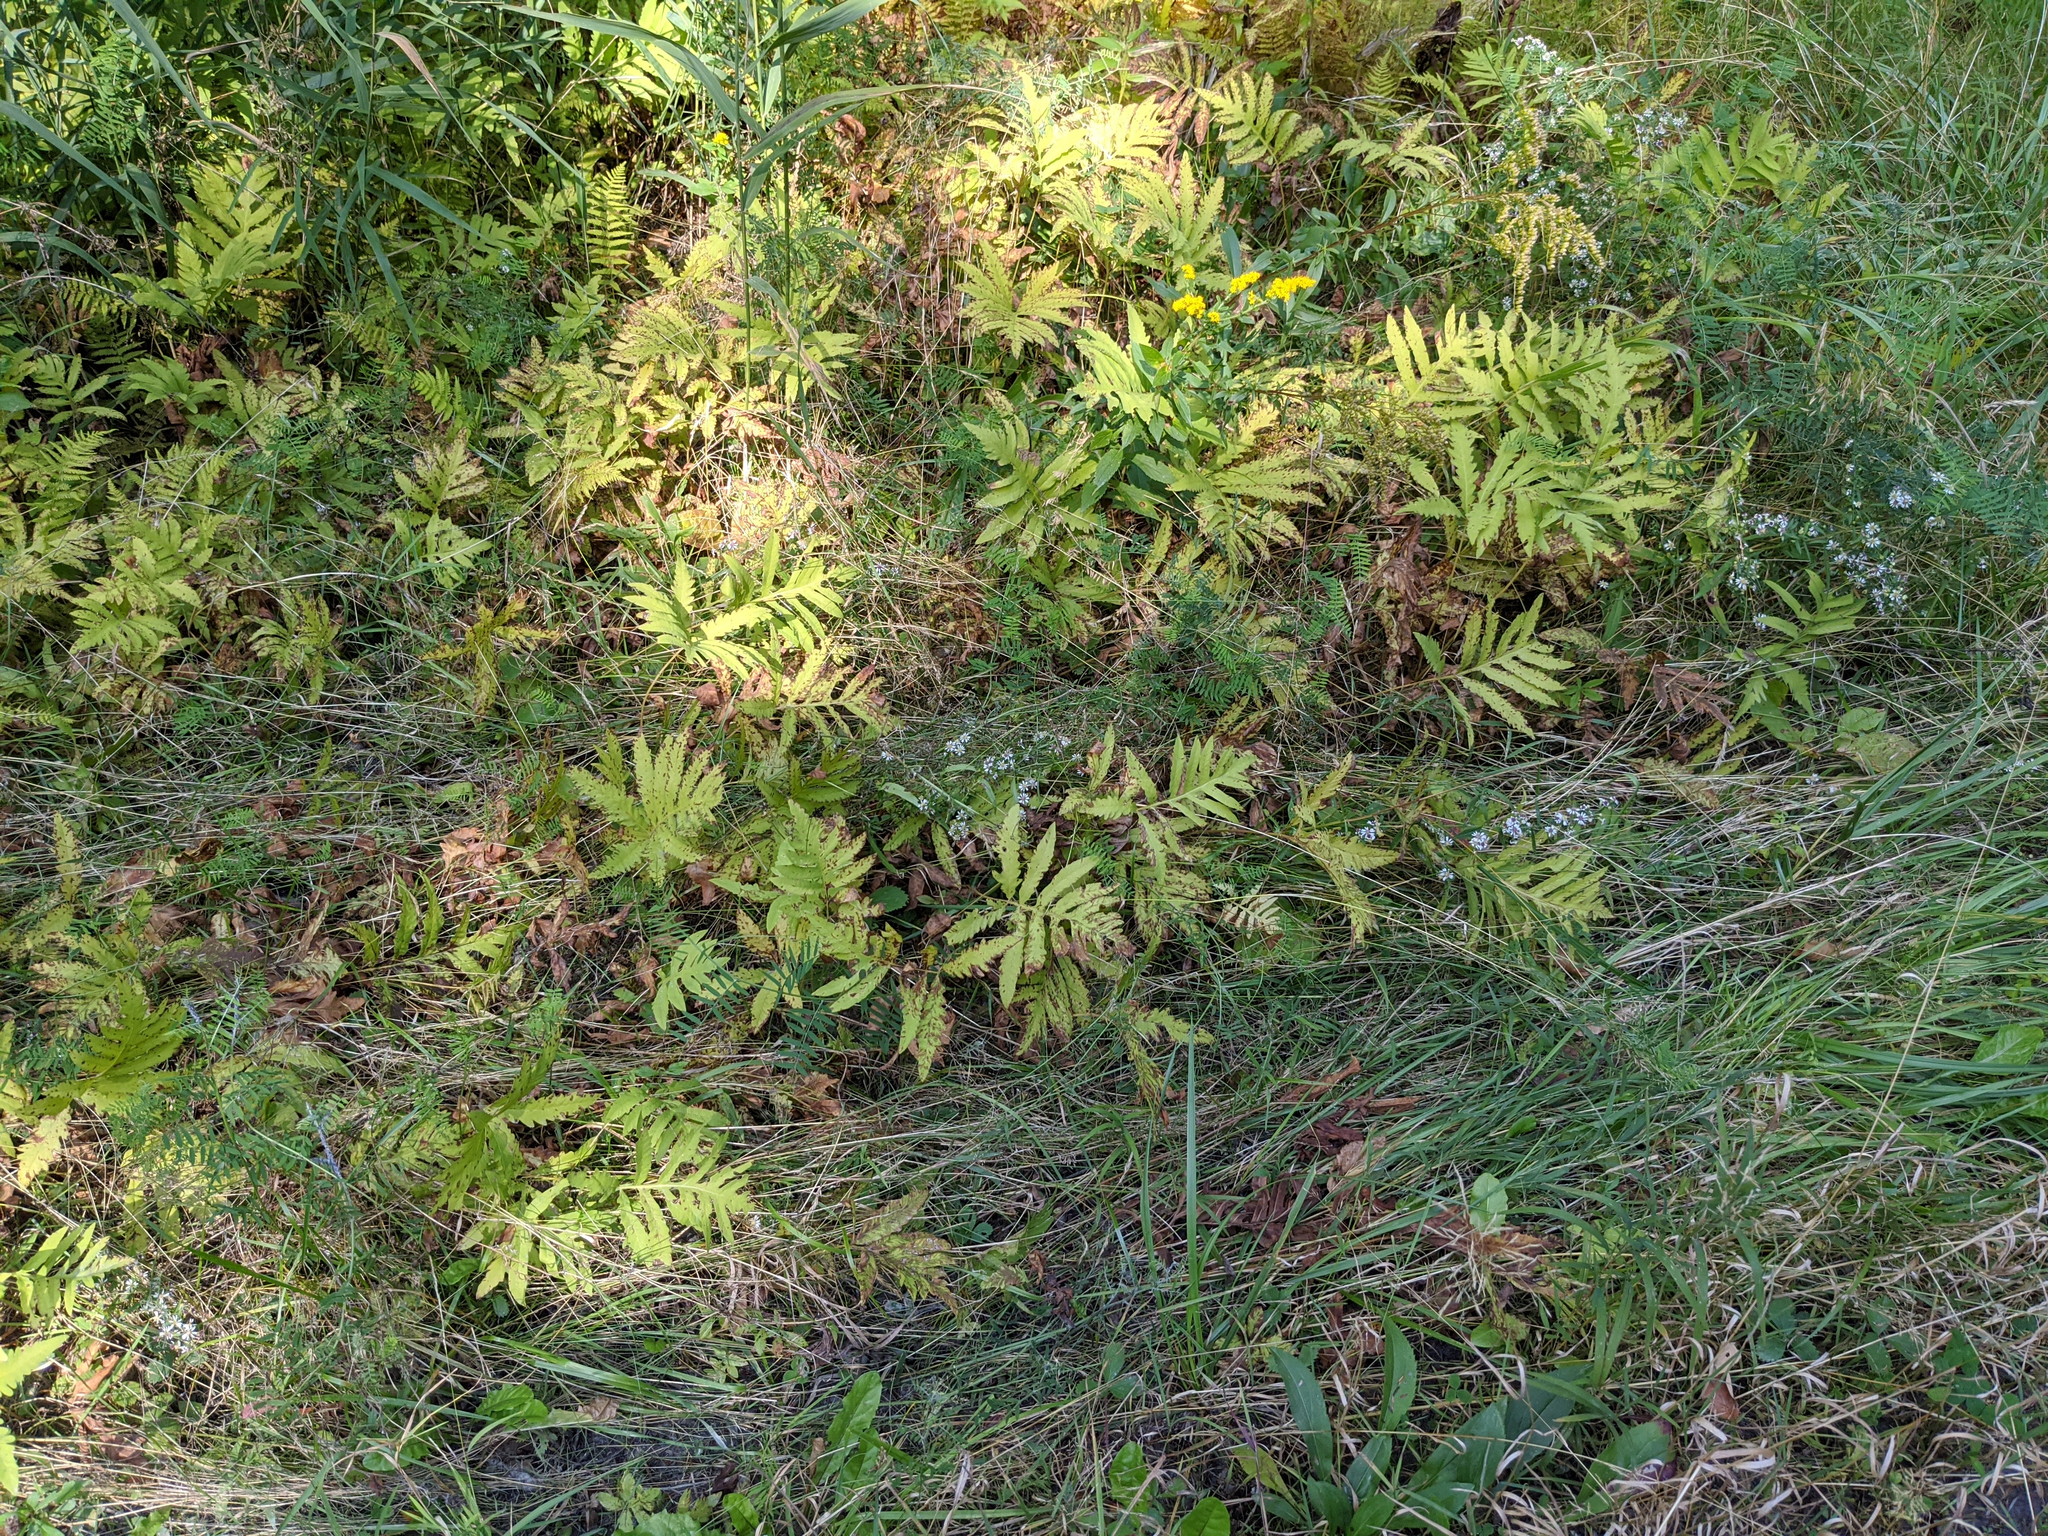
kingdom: Plantae
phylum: Tracheophyta
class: Polypodiopsida
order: Polypodiales
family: Onocleaceae
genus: Onoclea
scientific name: Onoclea sensibilis
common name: Sensitive fern
